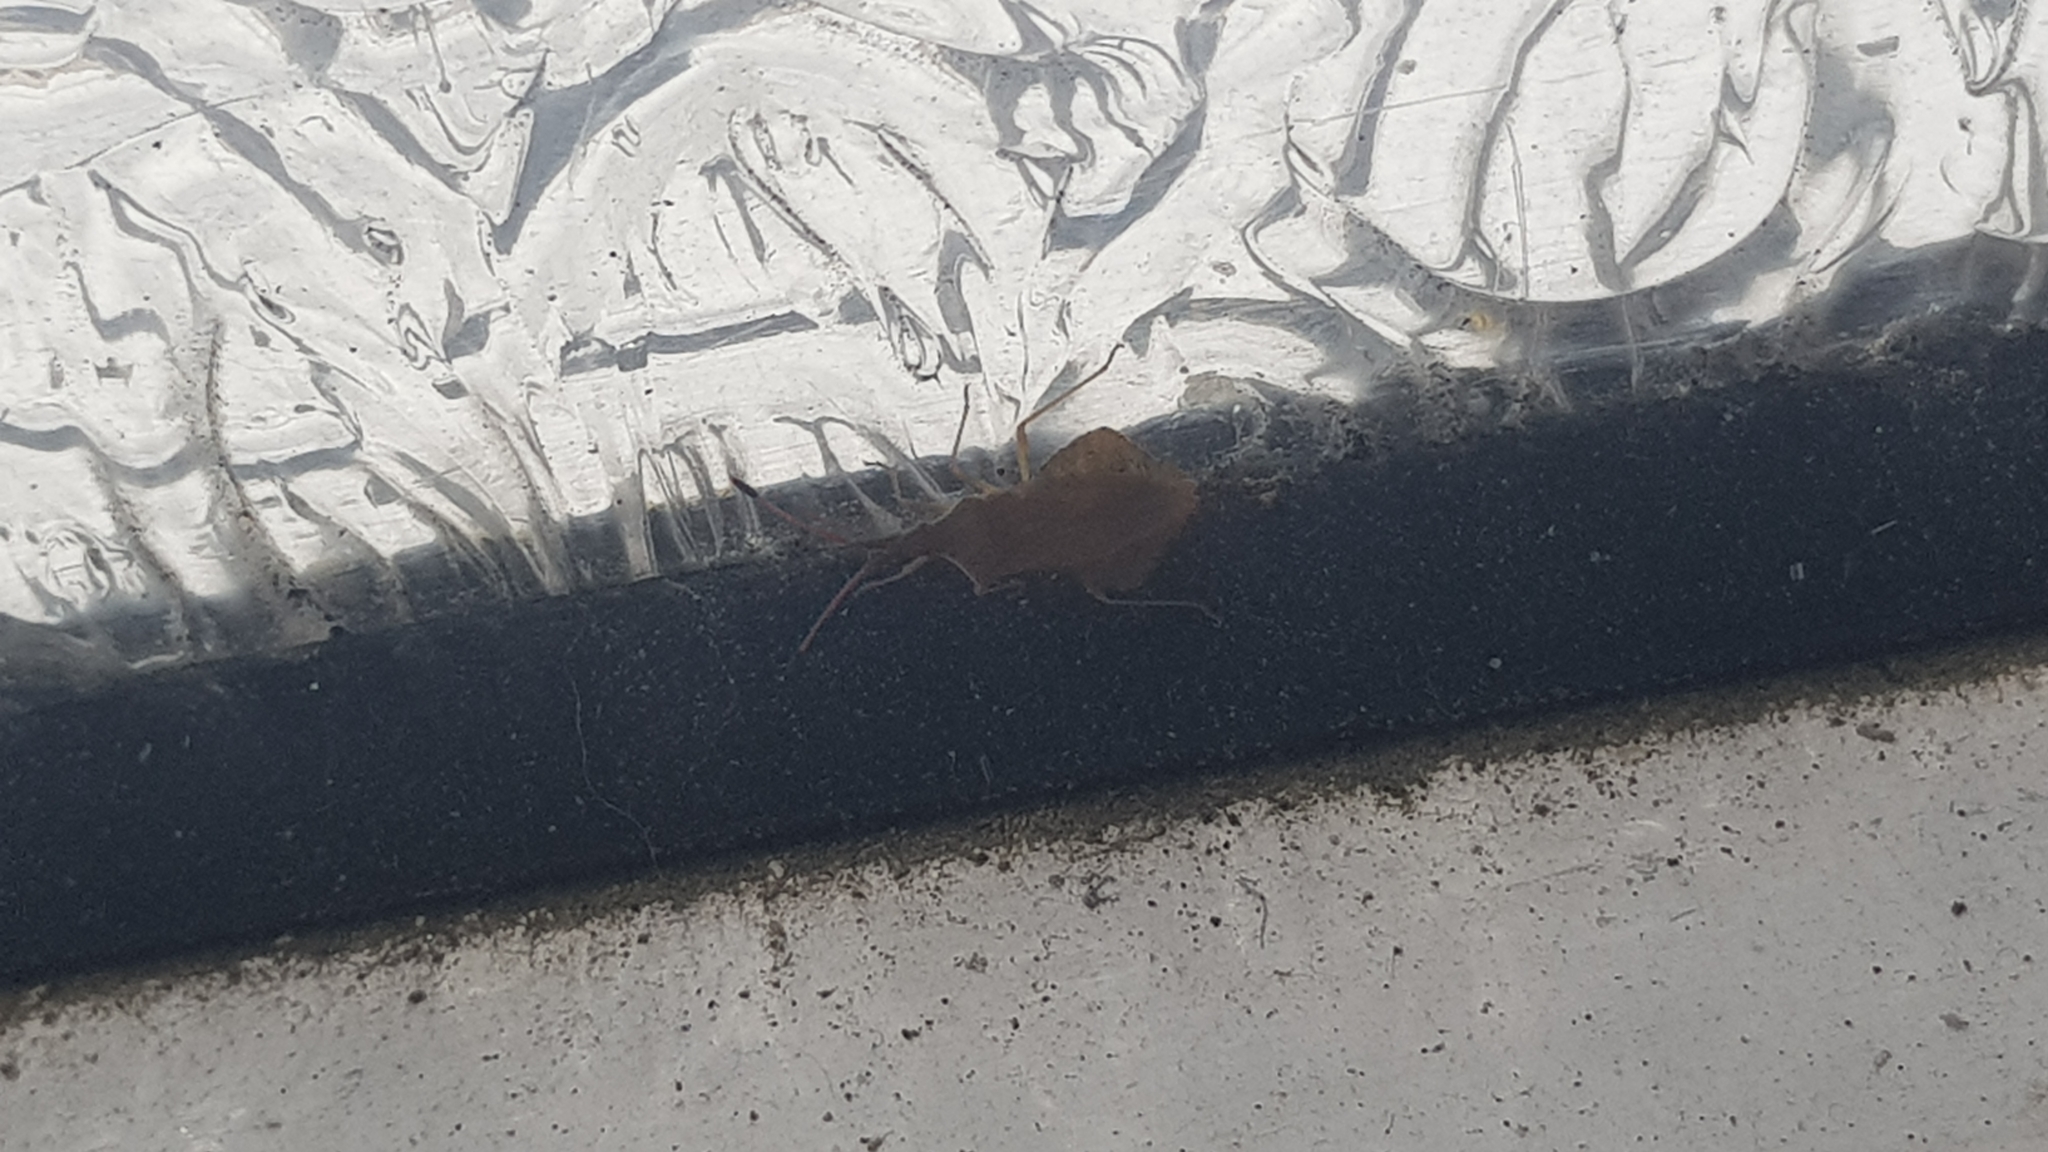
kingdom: Animalia
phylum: Arthropoda
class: Insecta
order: Hemiptera
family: Coreidae
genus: Syromastus
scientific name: Syromastus rhombeus
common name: Rhombic leatherbug
